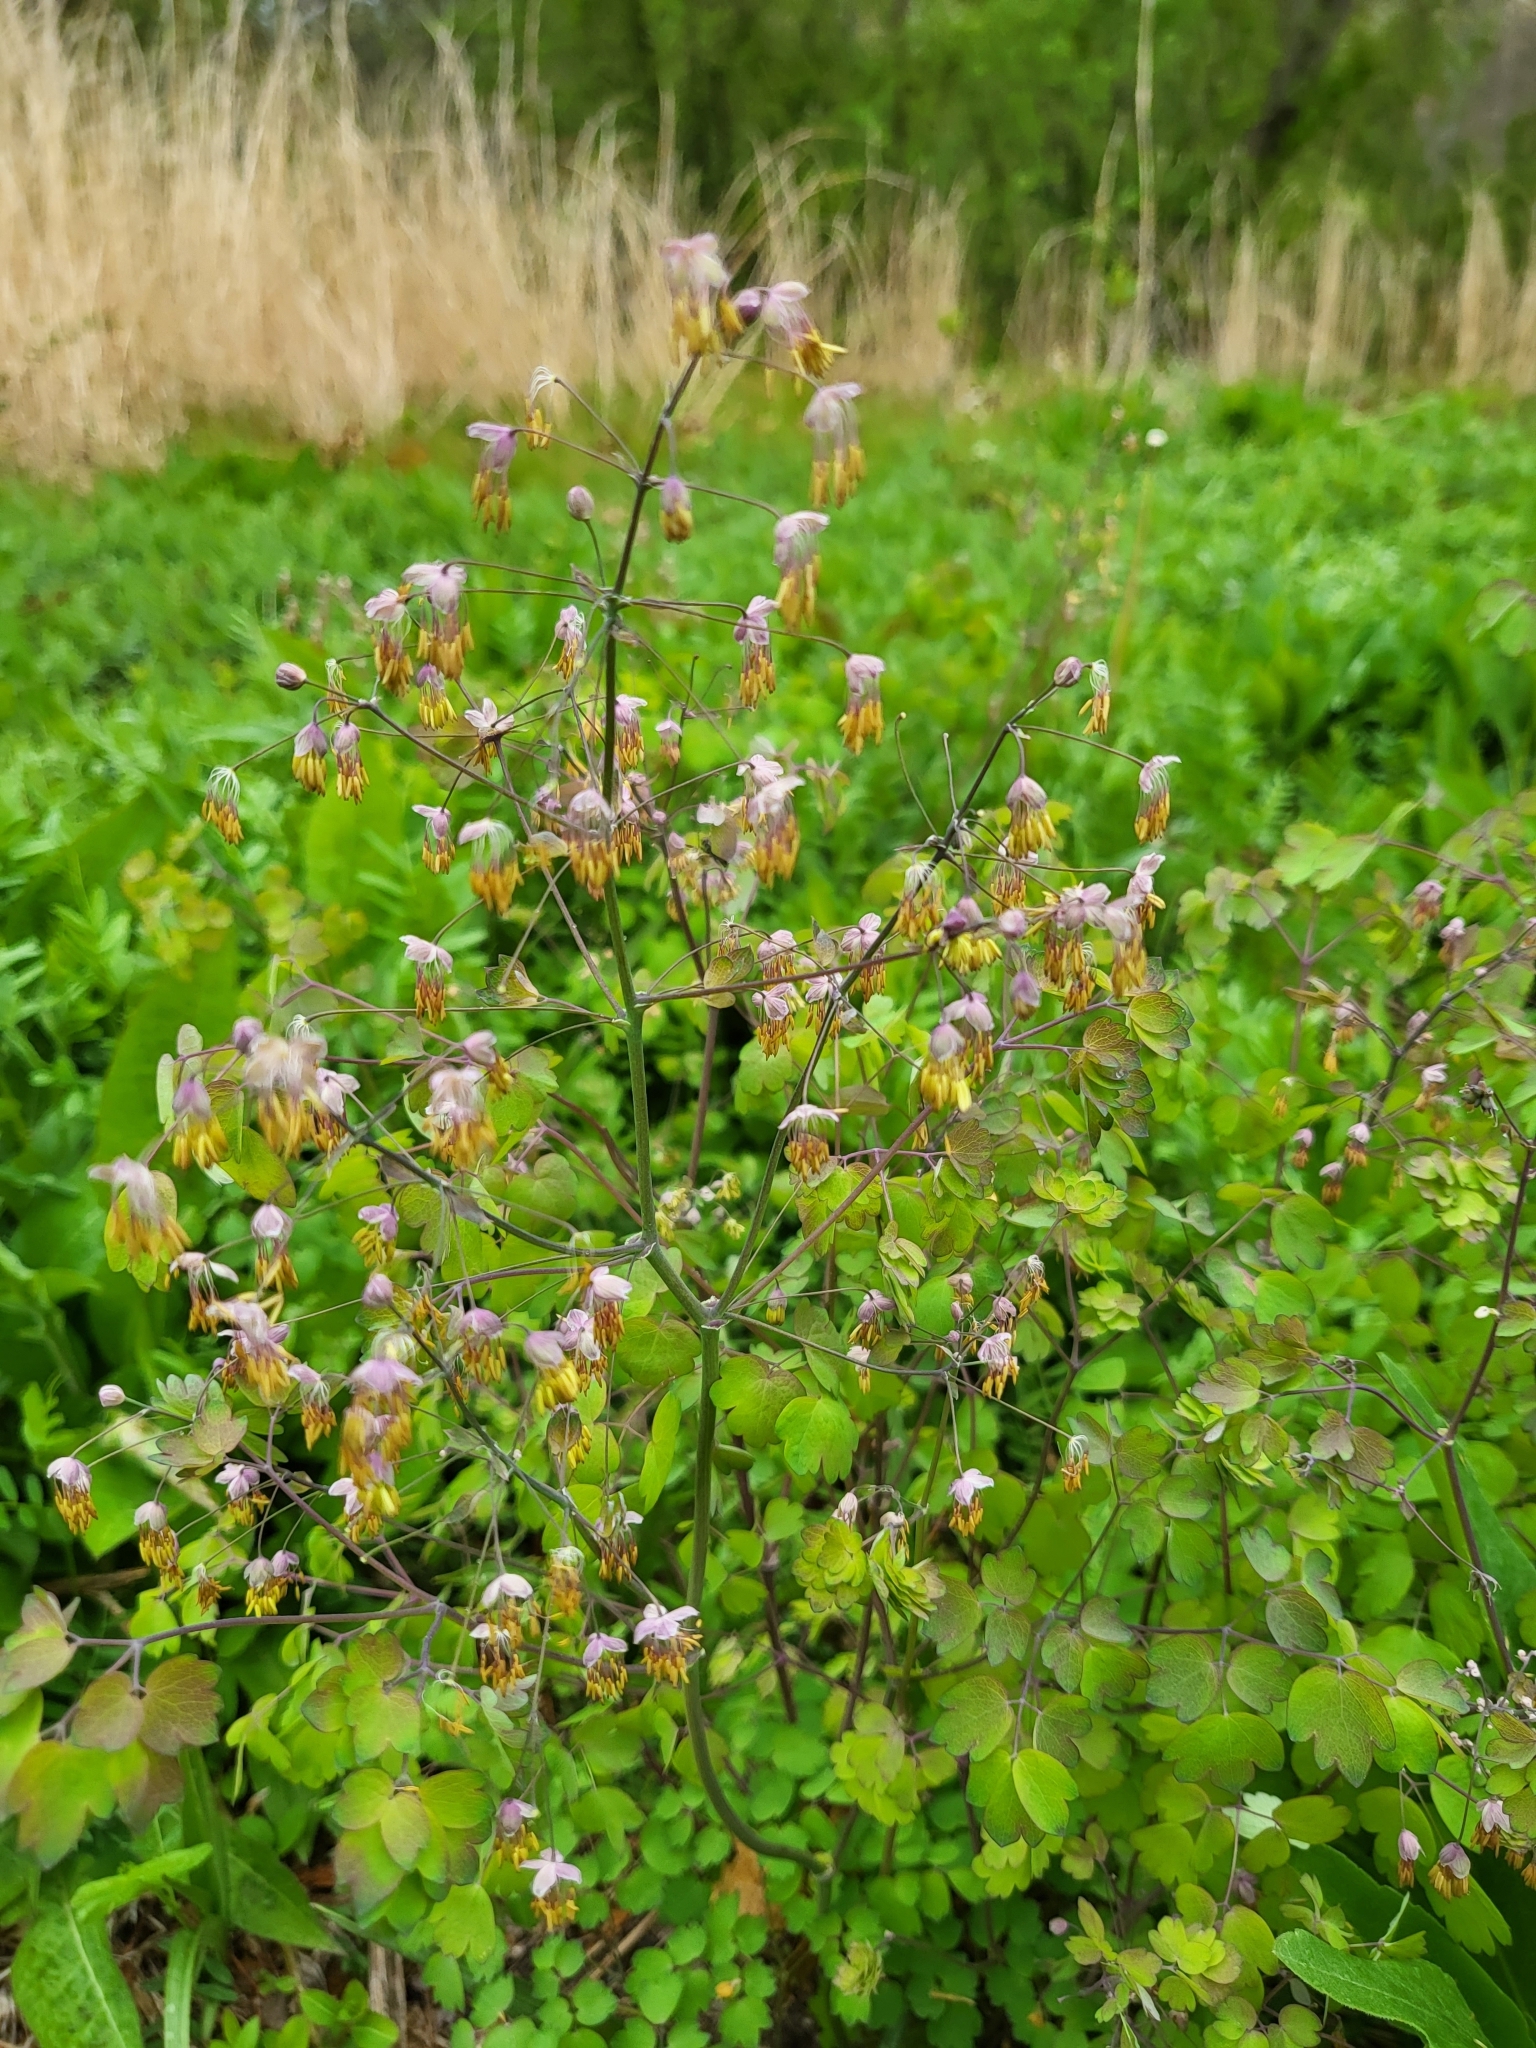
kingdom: Plantae
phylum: Tracheophyta
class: Magnoliopsida
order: Ranunculales
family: Ranunculaceae
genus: Thalictrum
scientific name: Thalictrum dioicum
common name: Early meadow-rue
